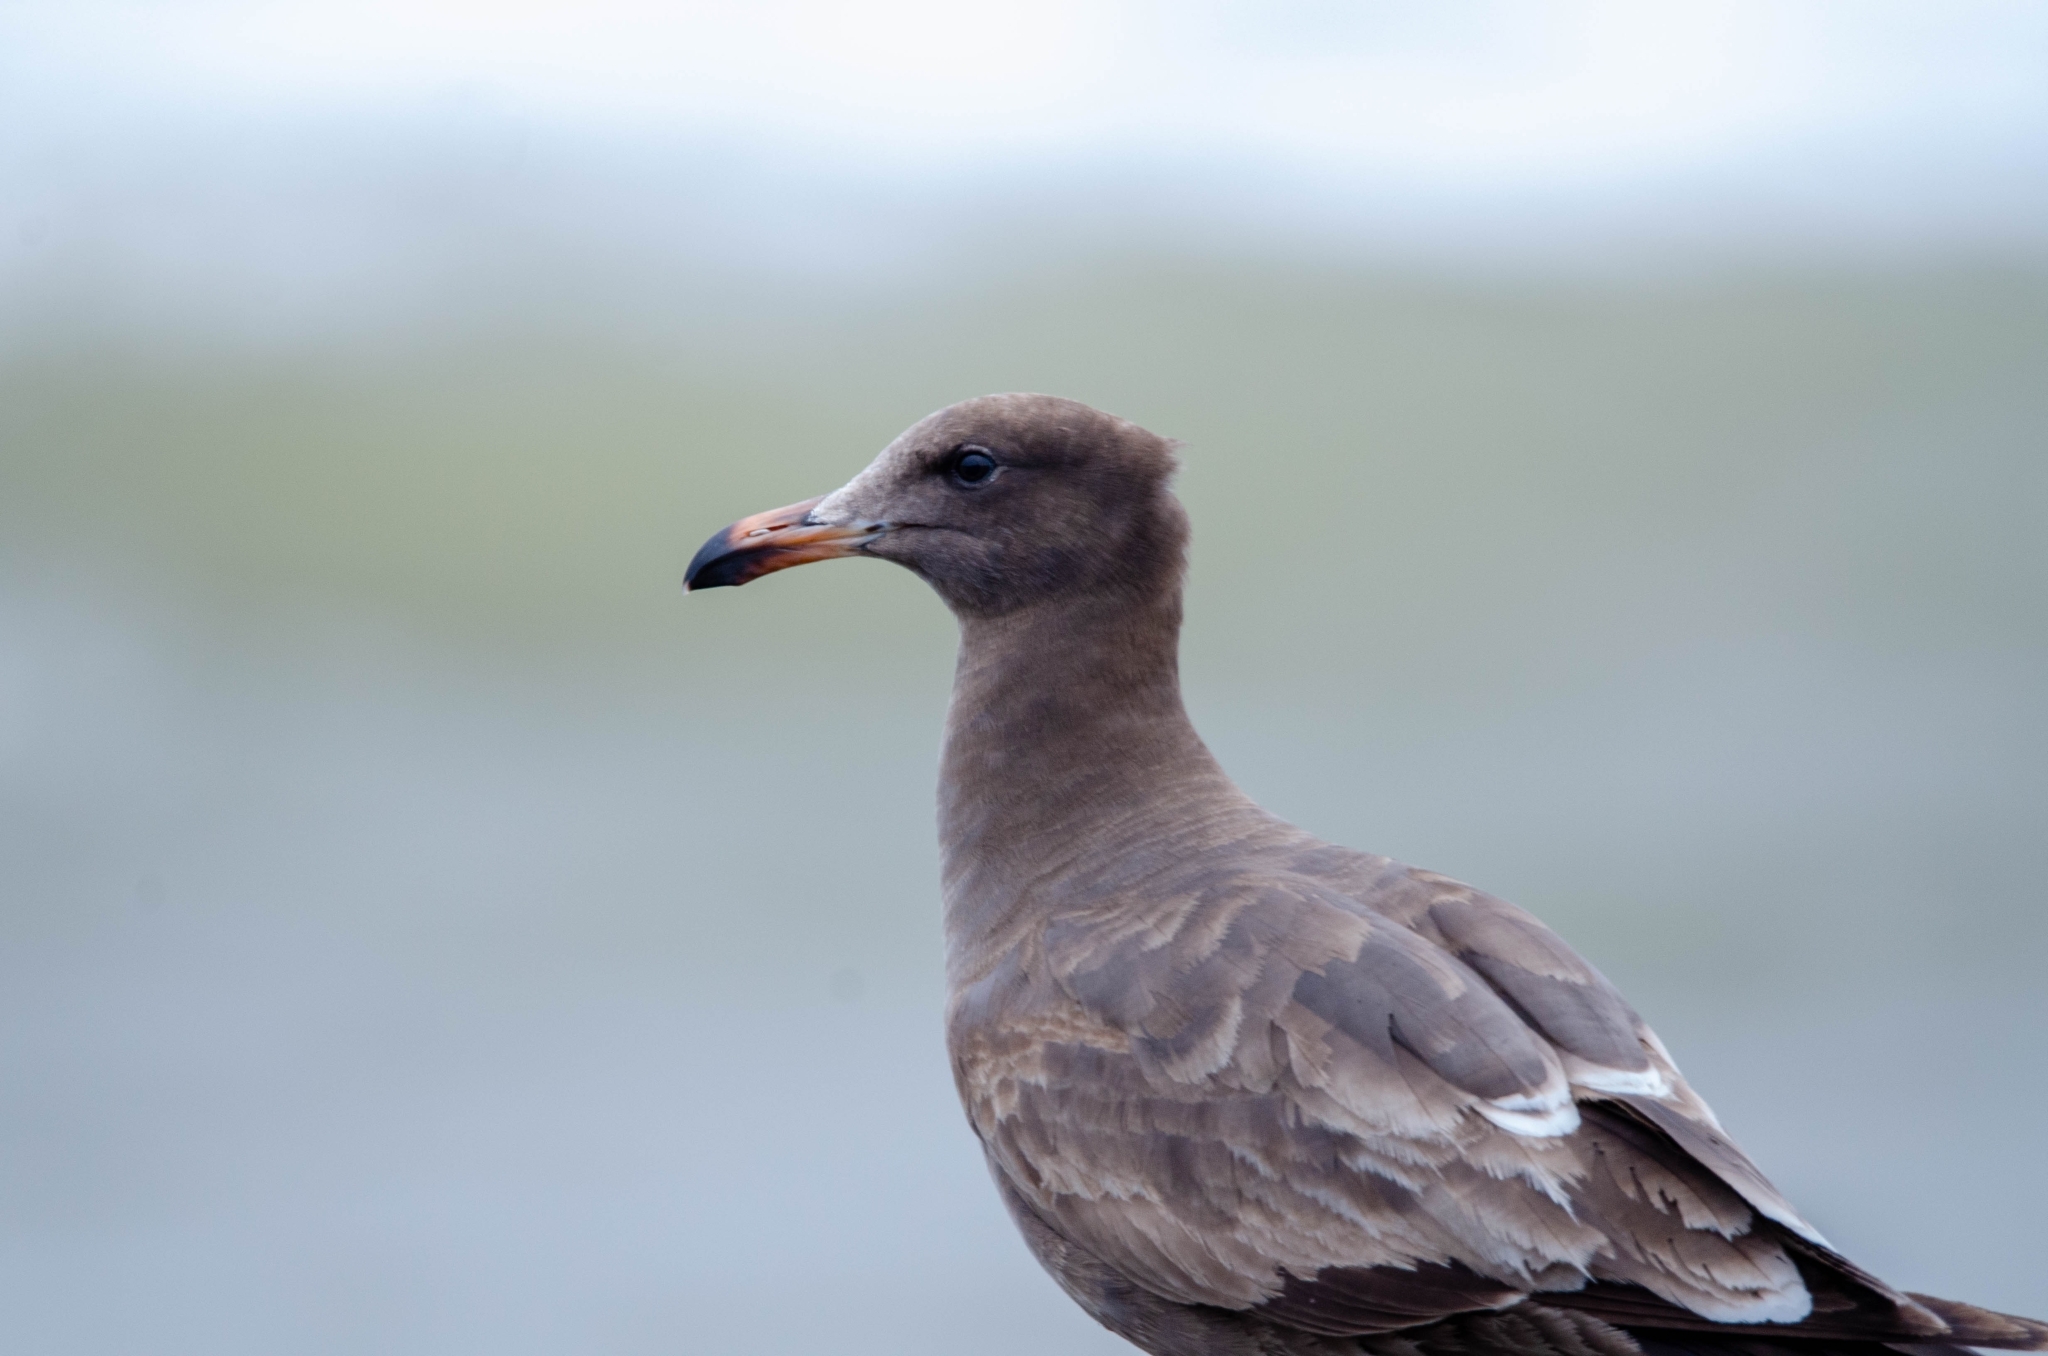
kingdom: Animalia
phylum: Chordata
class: Aves
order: Charadriiformes
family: Laridae
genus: Larus
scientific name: Larus heermanni
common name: Heermann's gull
